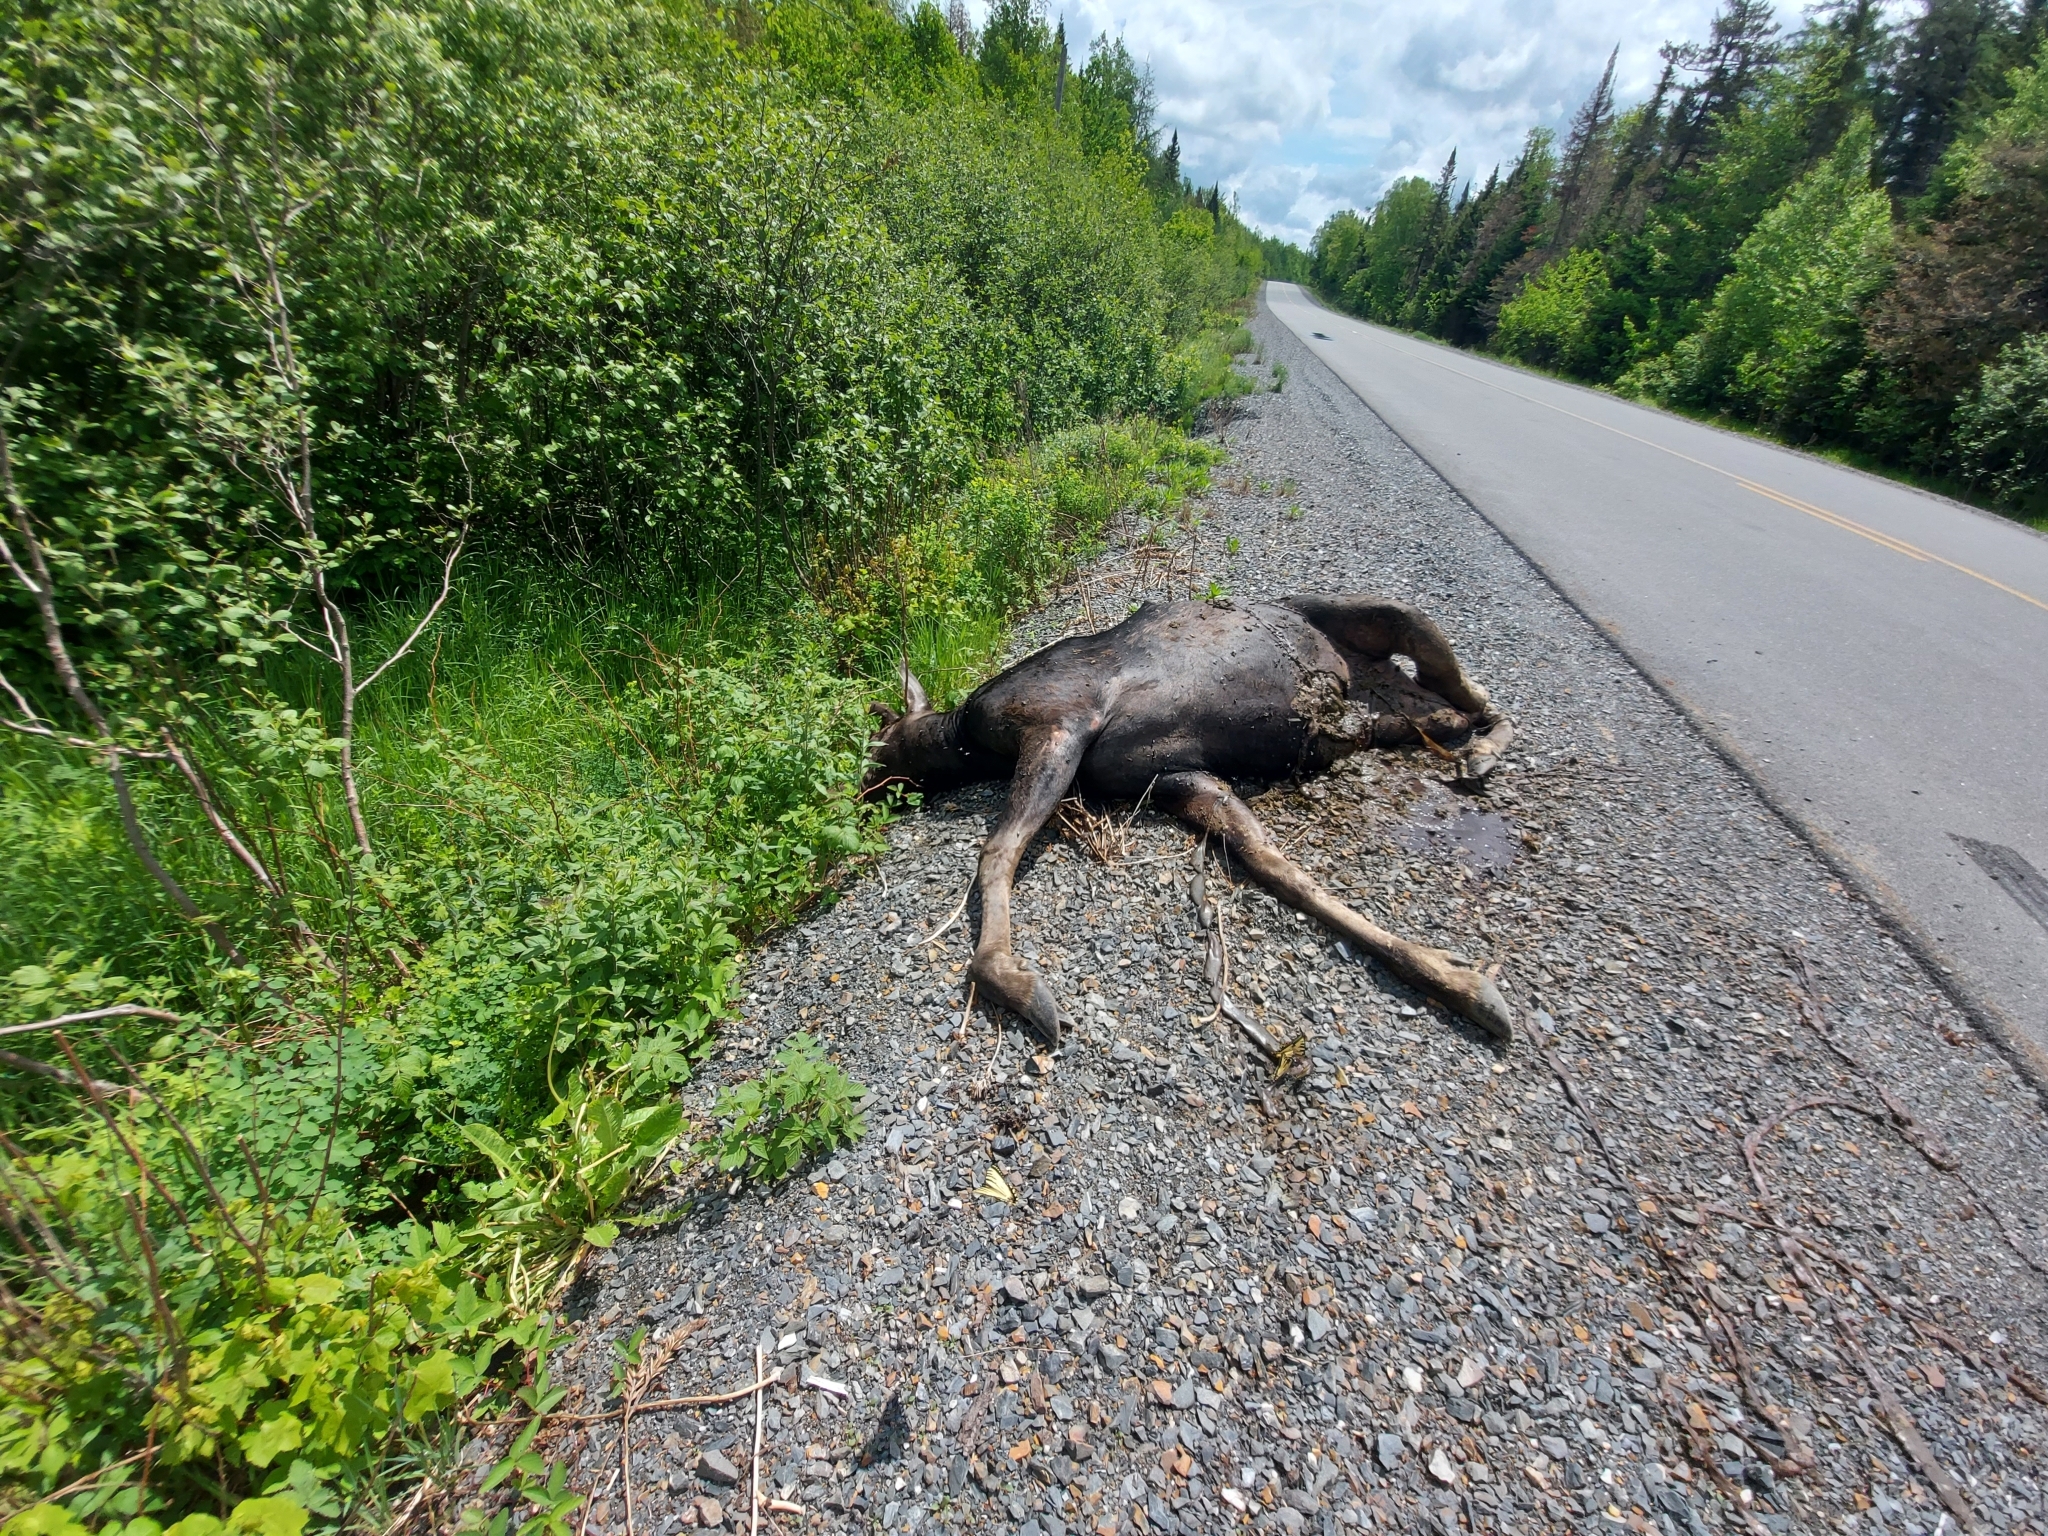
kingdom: Animalia
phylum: Chordata
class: Mammalia
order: Artiodactyla
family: Cervidae
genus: Alces
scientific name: Alces alces
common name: Moose
